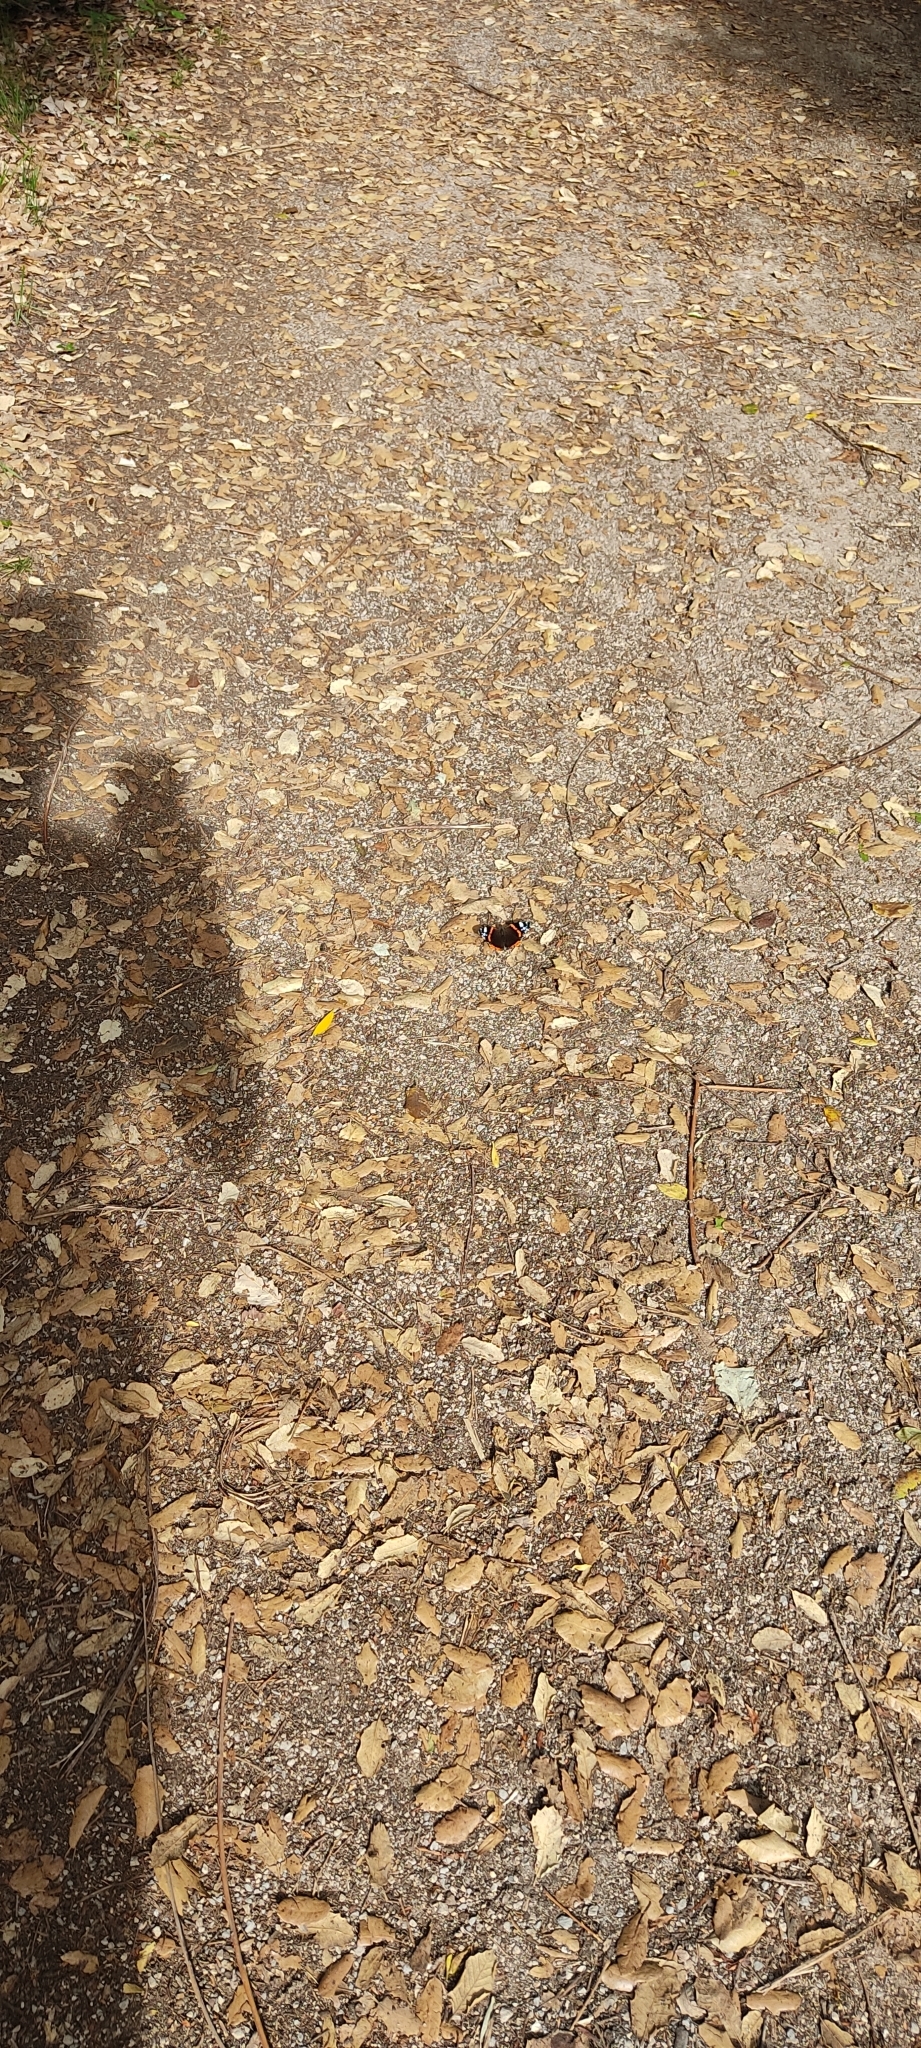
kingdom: Animalia
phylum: Arthropoda
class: Insecta
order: Lepidoptera
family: Nymphalidae
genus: Vanessa
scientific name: Vanessa atalanta
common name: Red admiral
